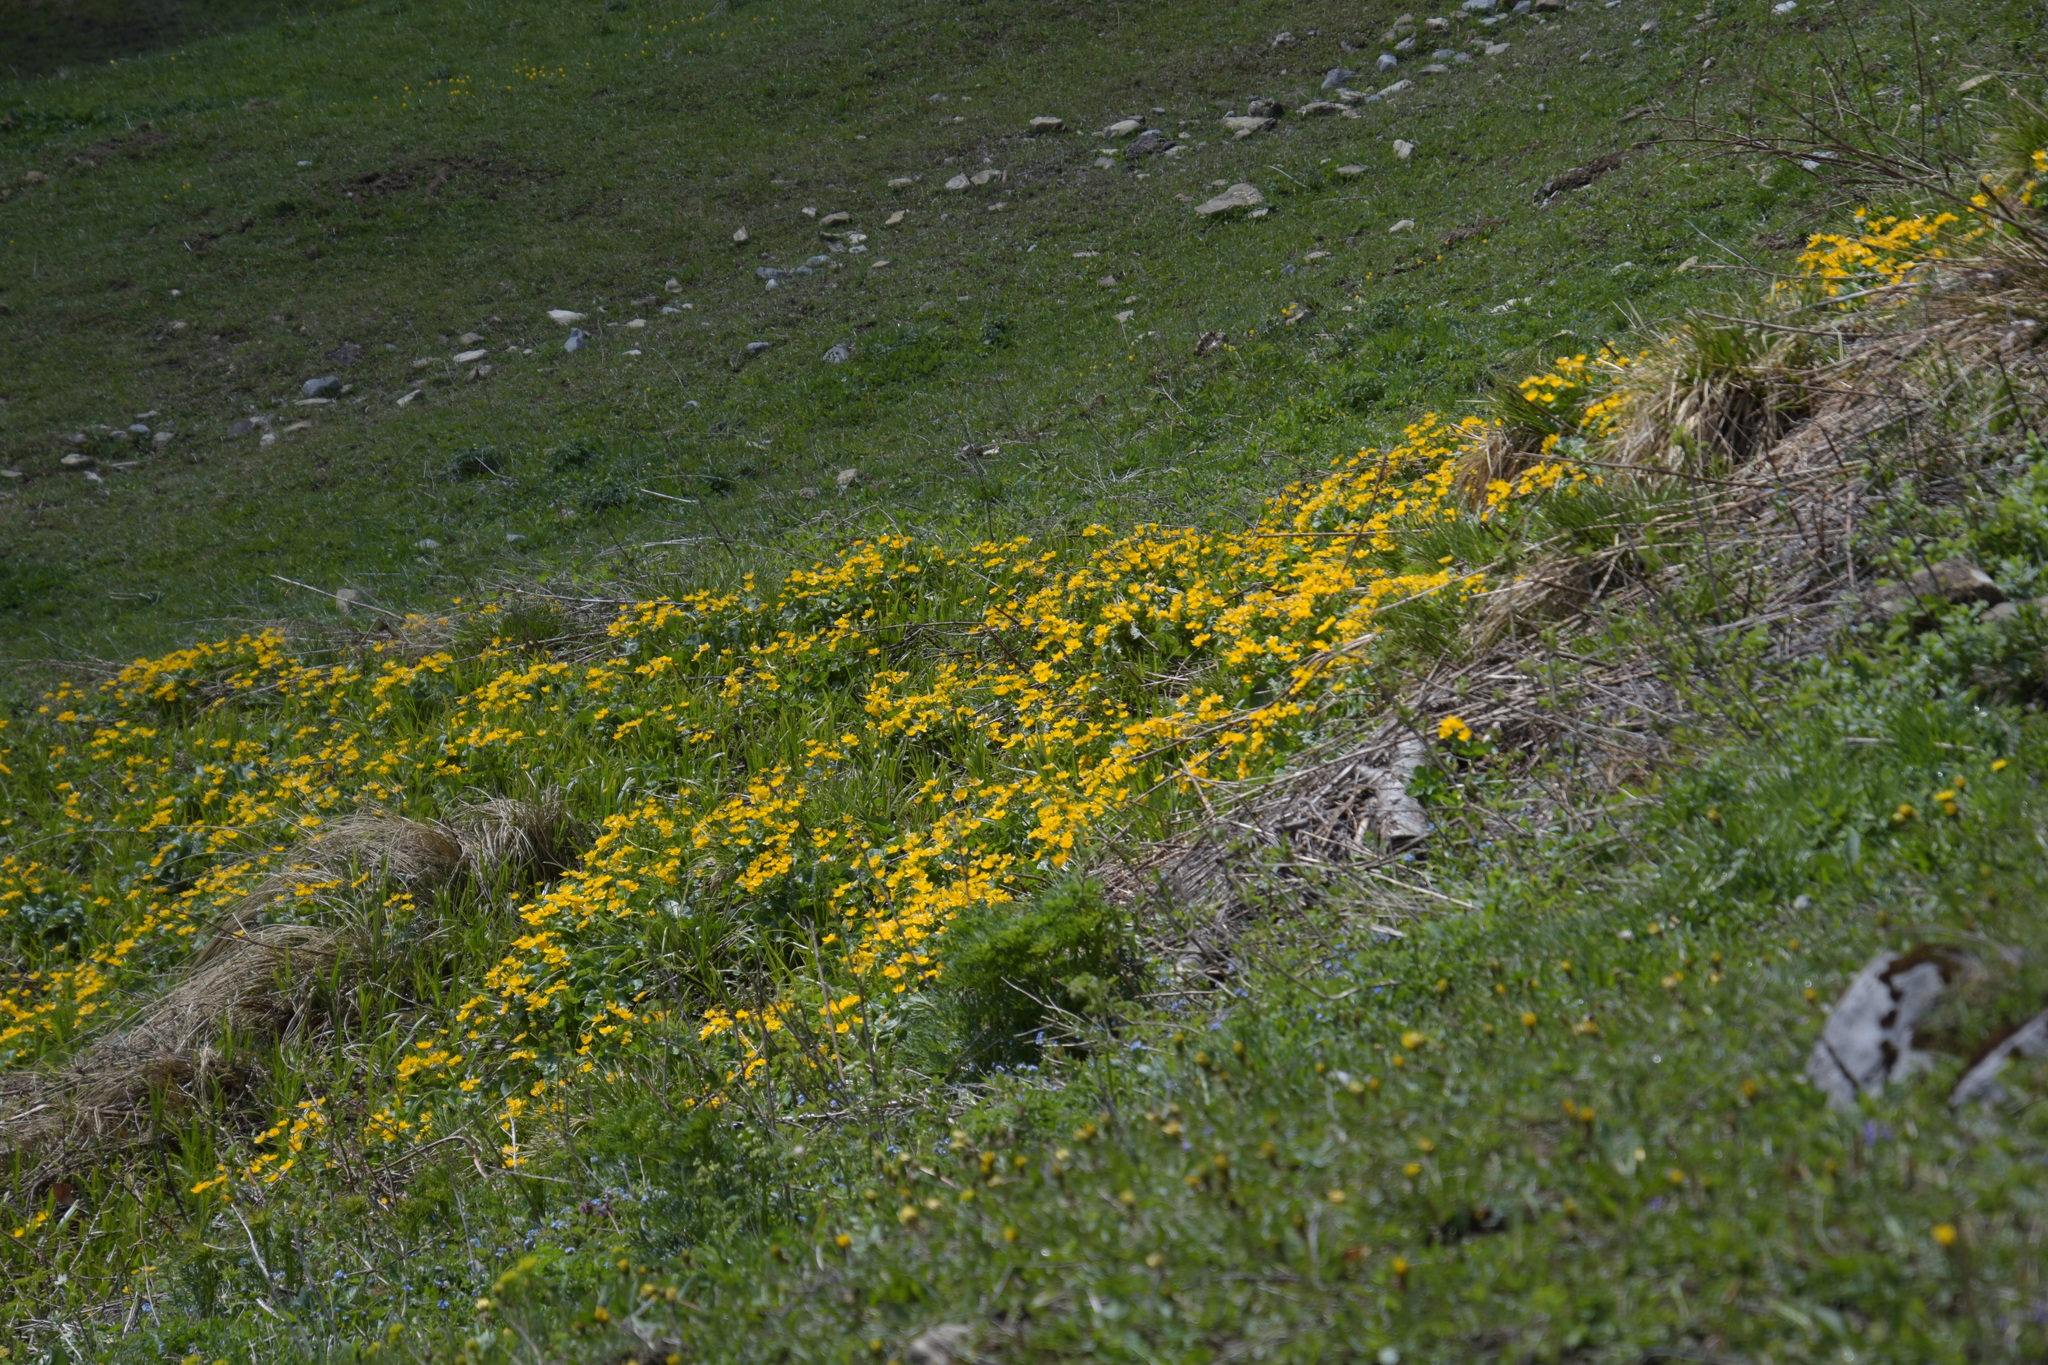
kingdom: Plantae
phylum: Tracheophyta
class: Magnoliopsida
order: Ranunculales
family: Ranunculaceae
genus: Caltha
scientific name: Caltha palustris
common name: Marsh marigold
